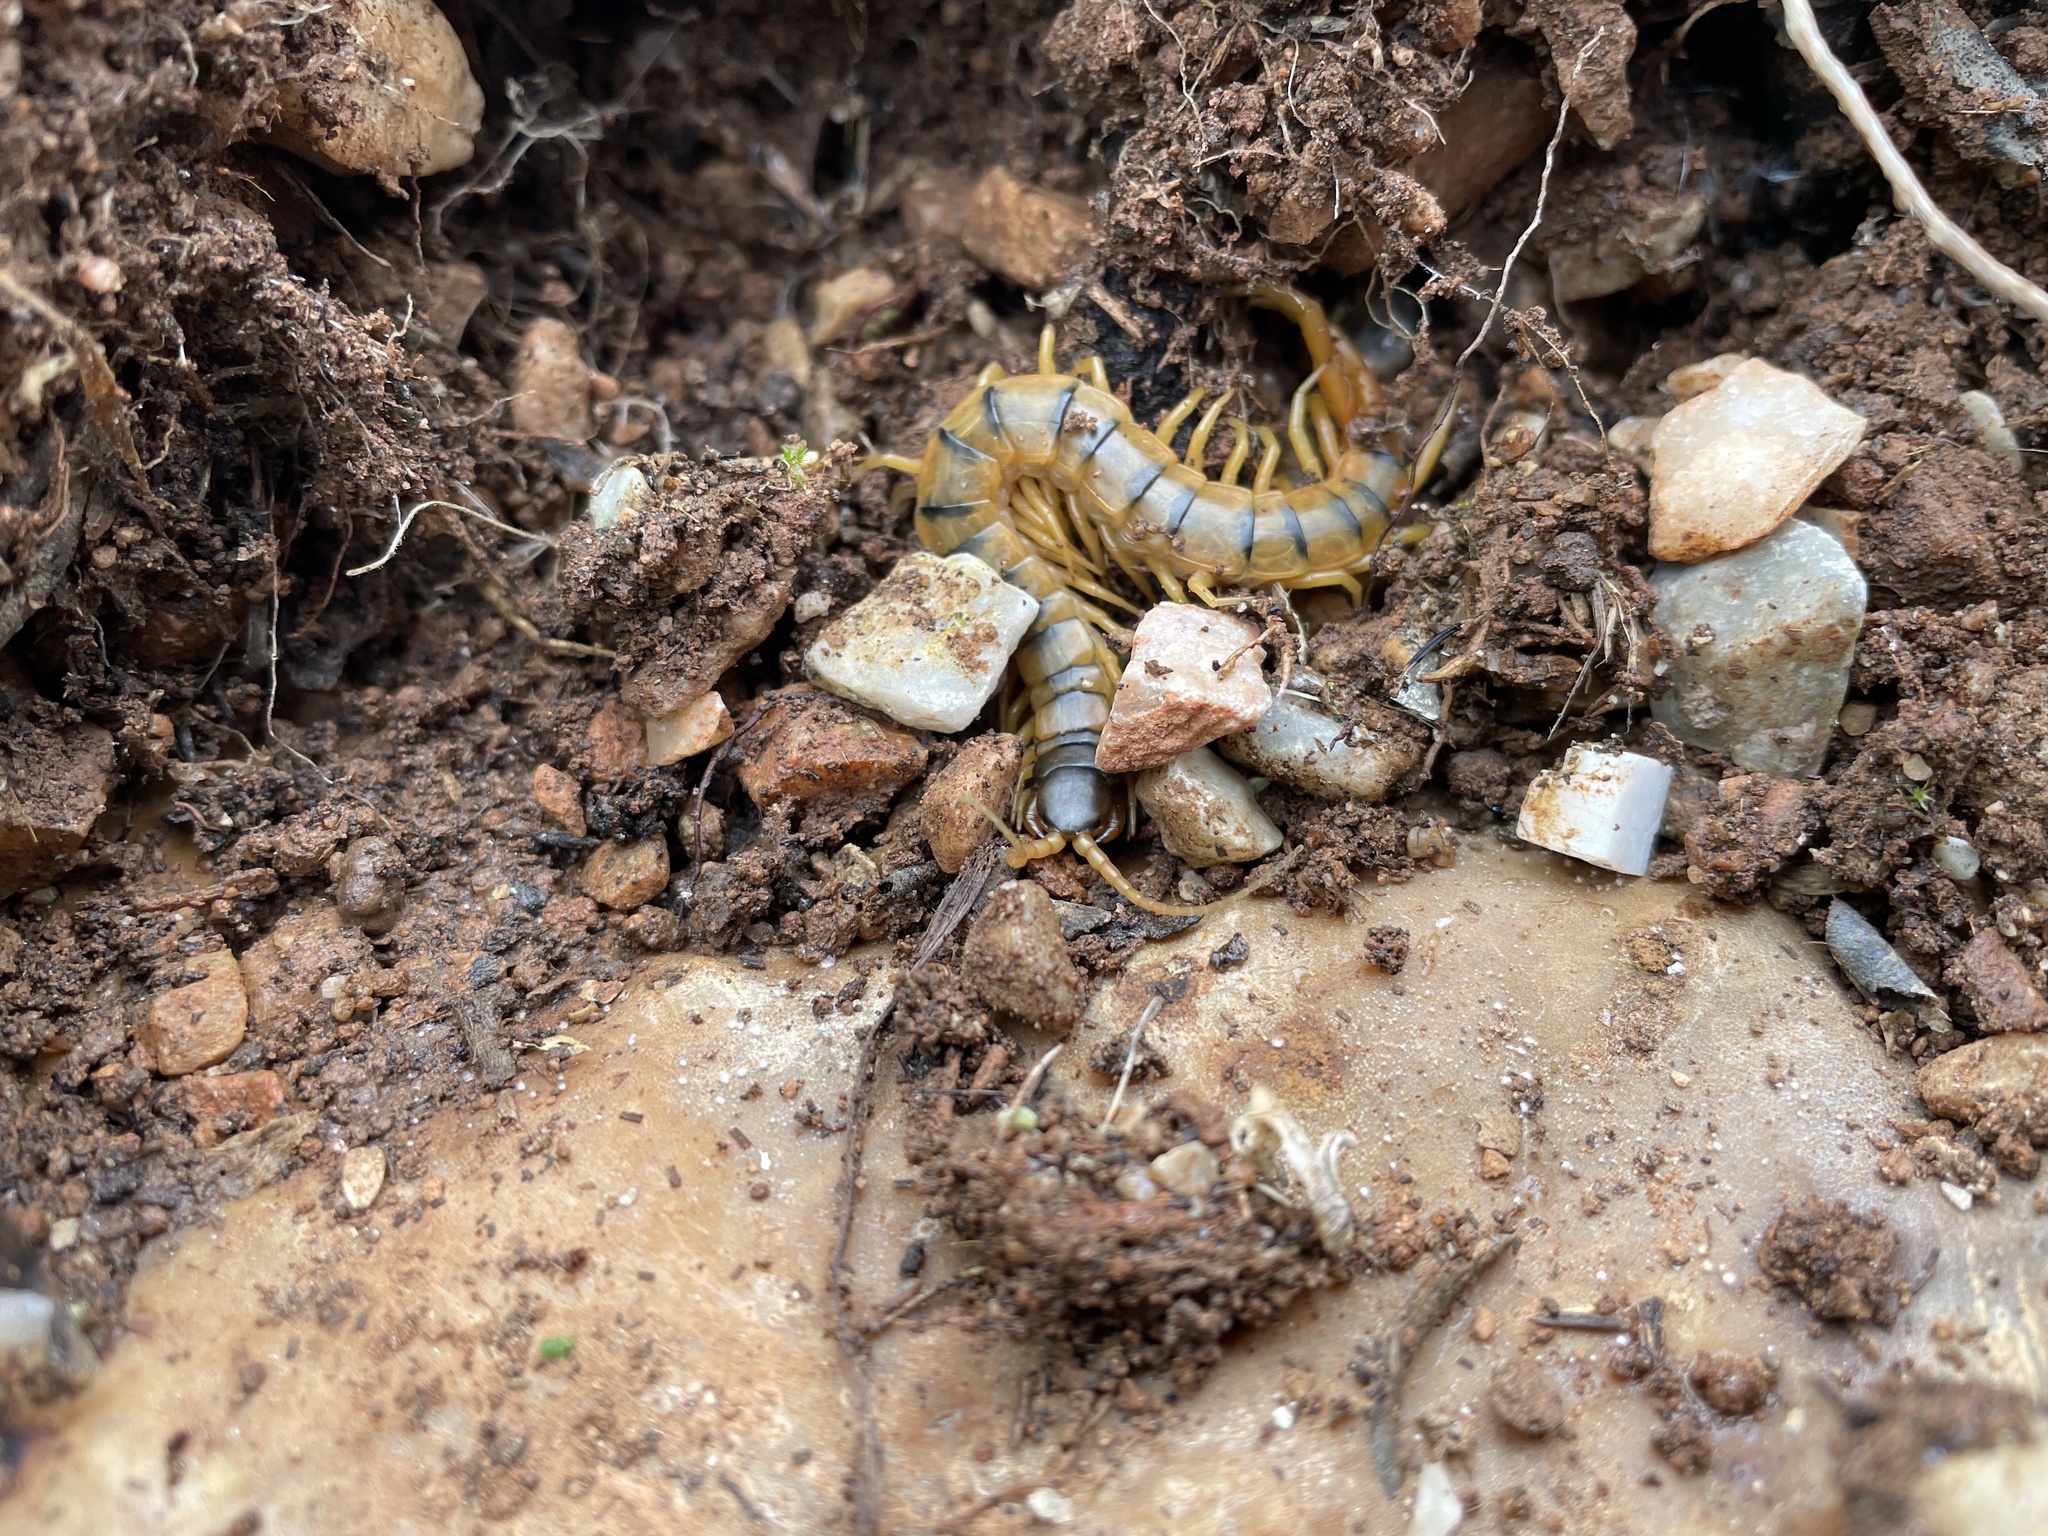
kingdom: Animalia
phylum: Arthropoda
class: Chilopoda
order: Scolopendromorpha
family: Scolopendridae
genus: Scolopendra
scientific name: Scolopendra cingulata
